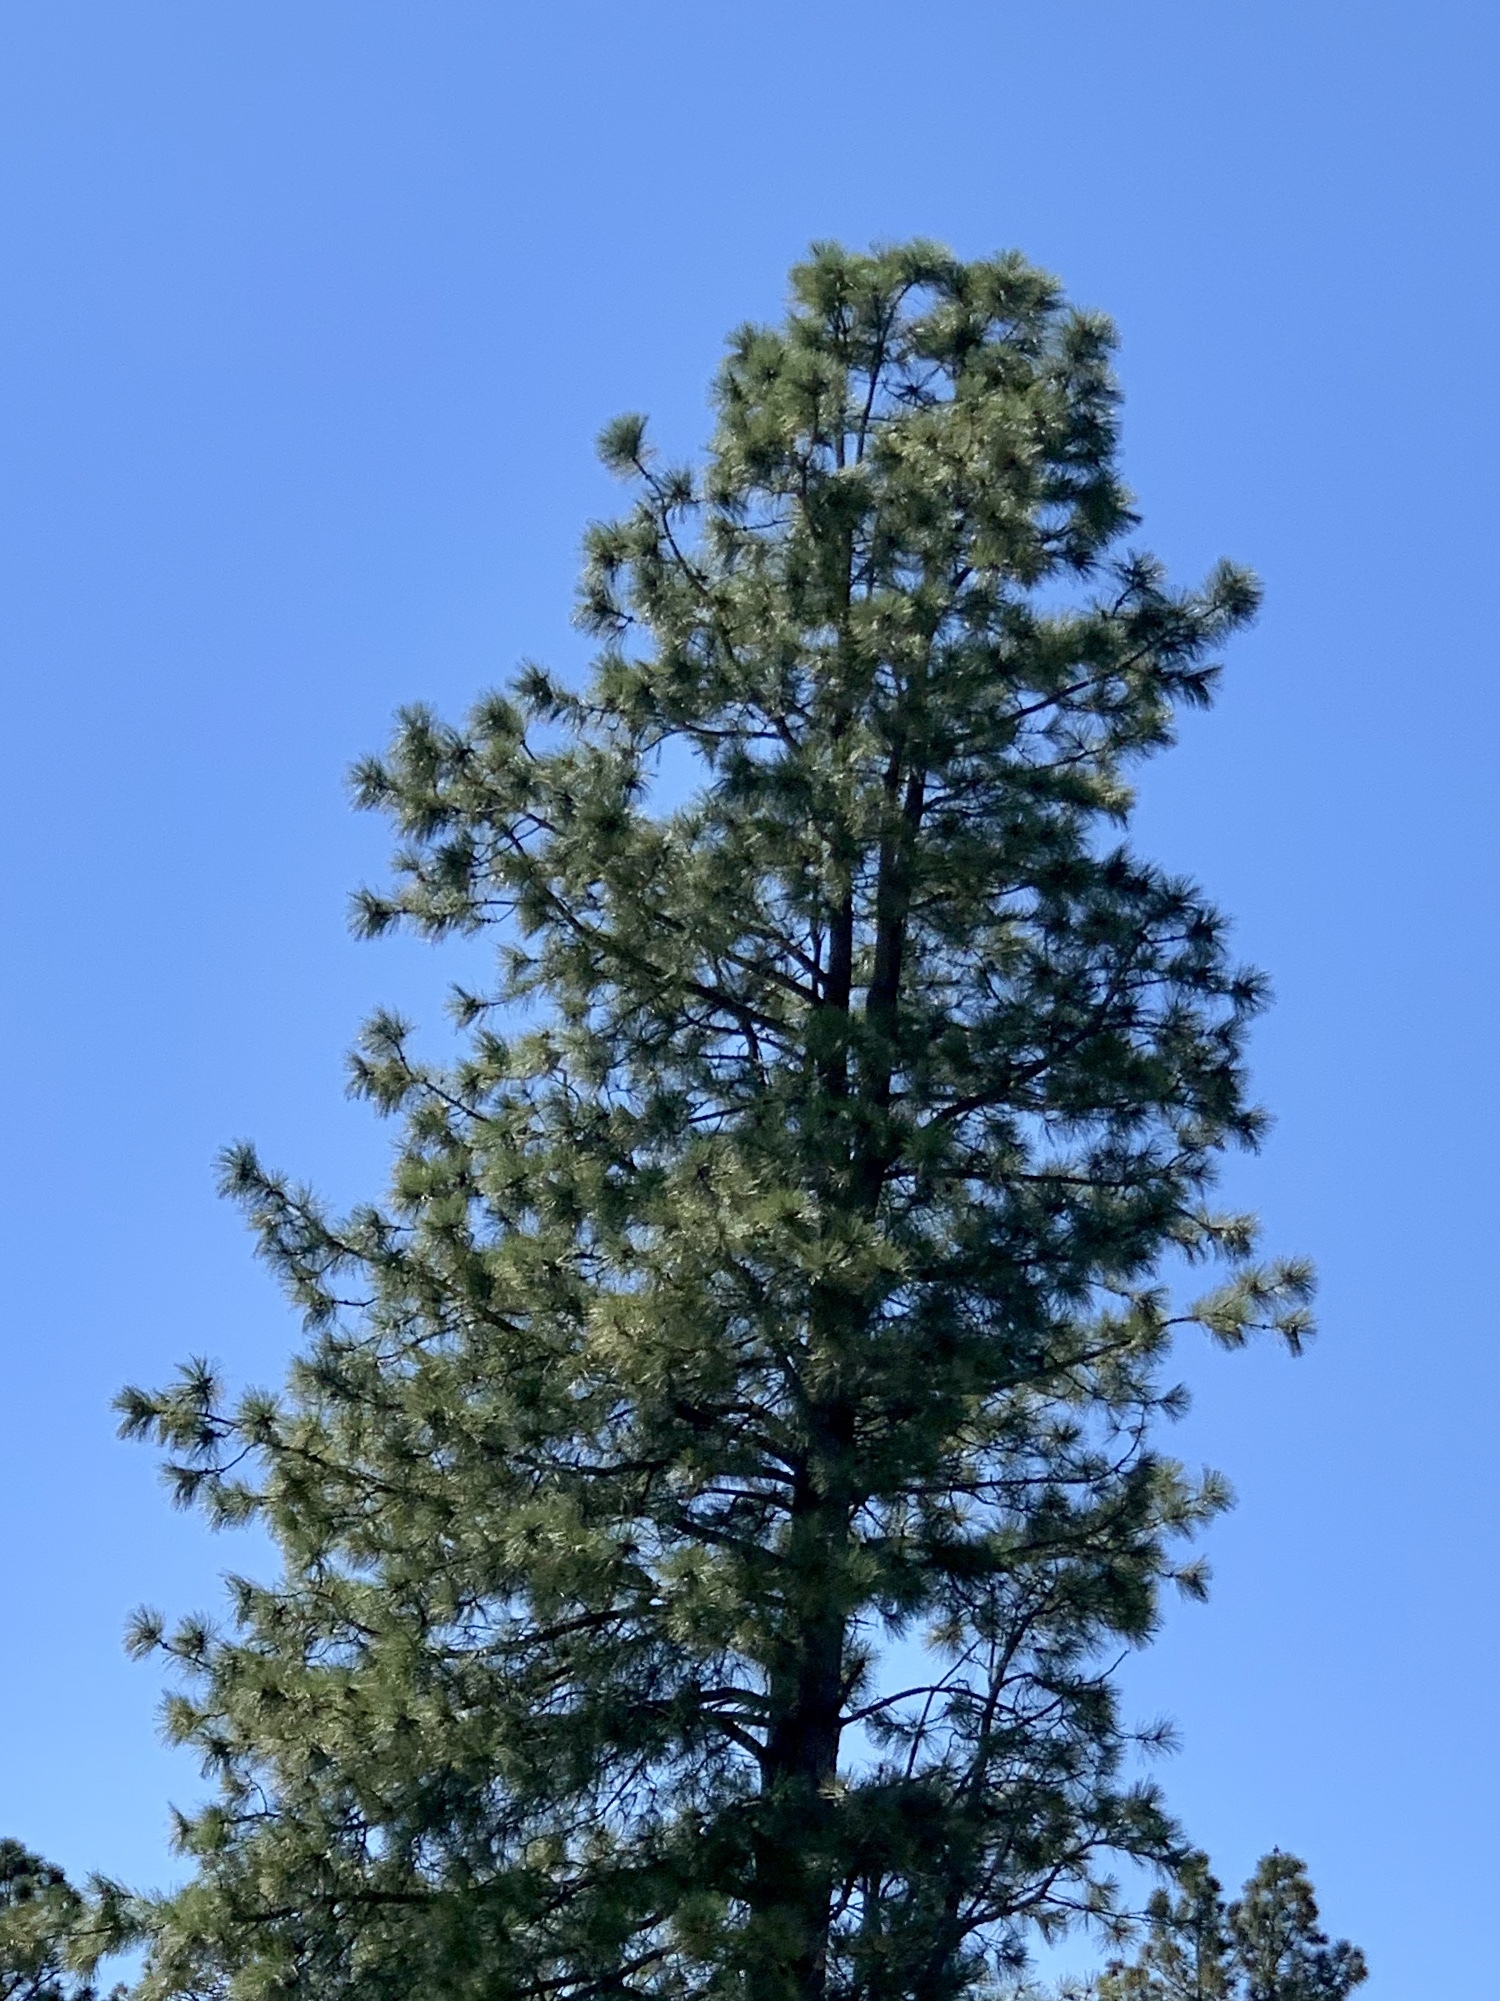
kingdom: Plantae
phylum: Tracheophyta
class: Pinopsida
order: Pinales
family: Pinaceae
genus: Pinus
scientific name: Pinus ponderosa
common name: Western yellow-pine
